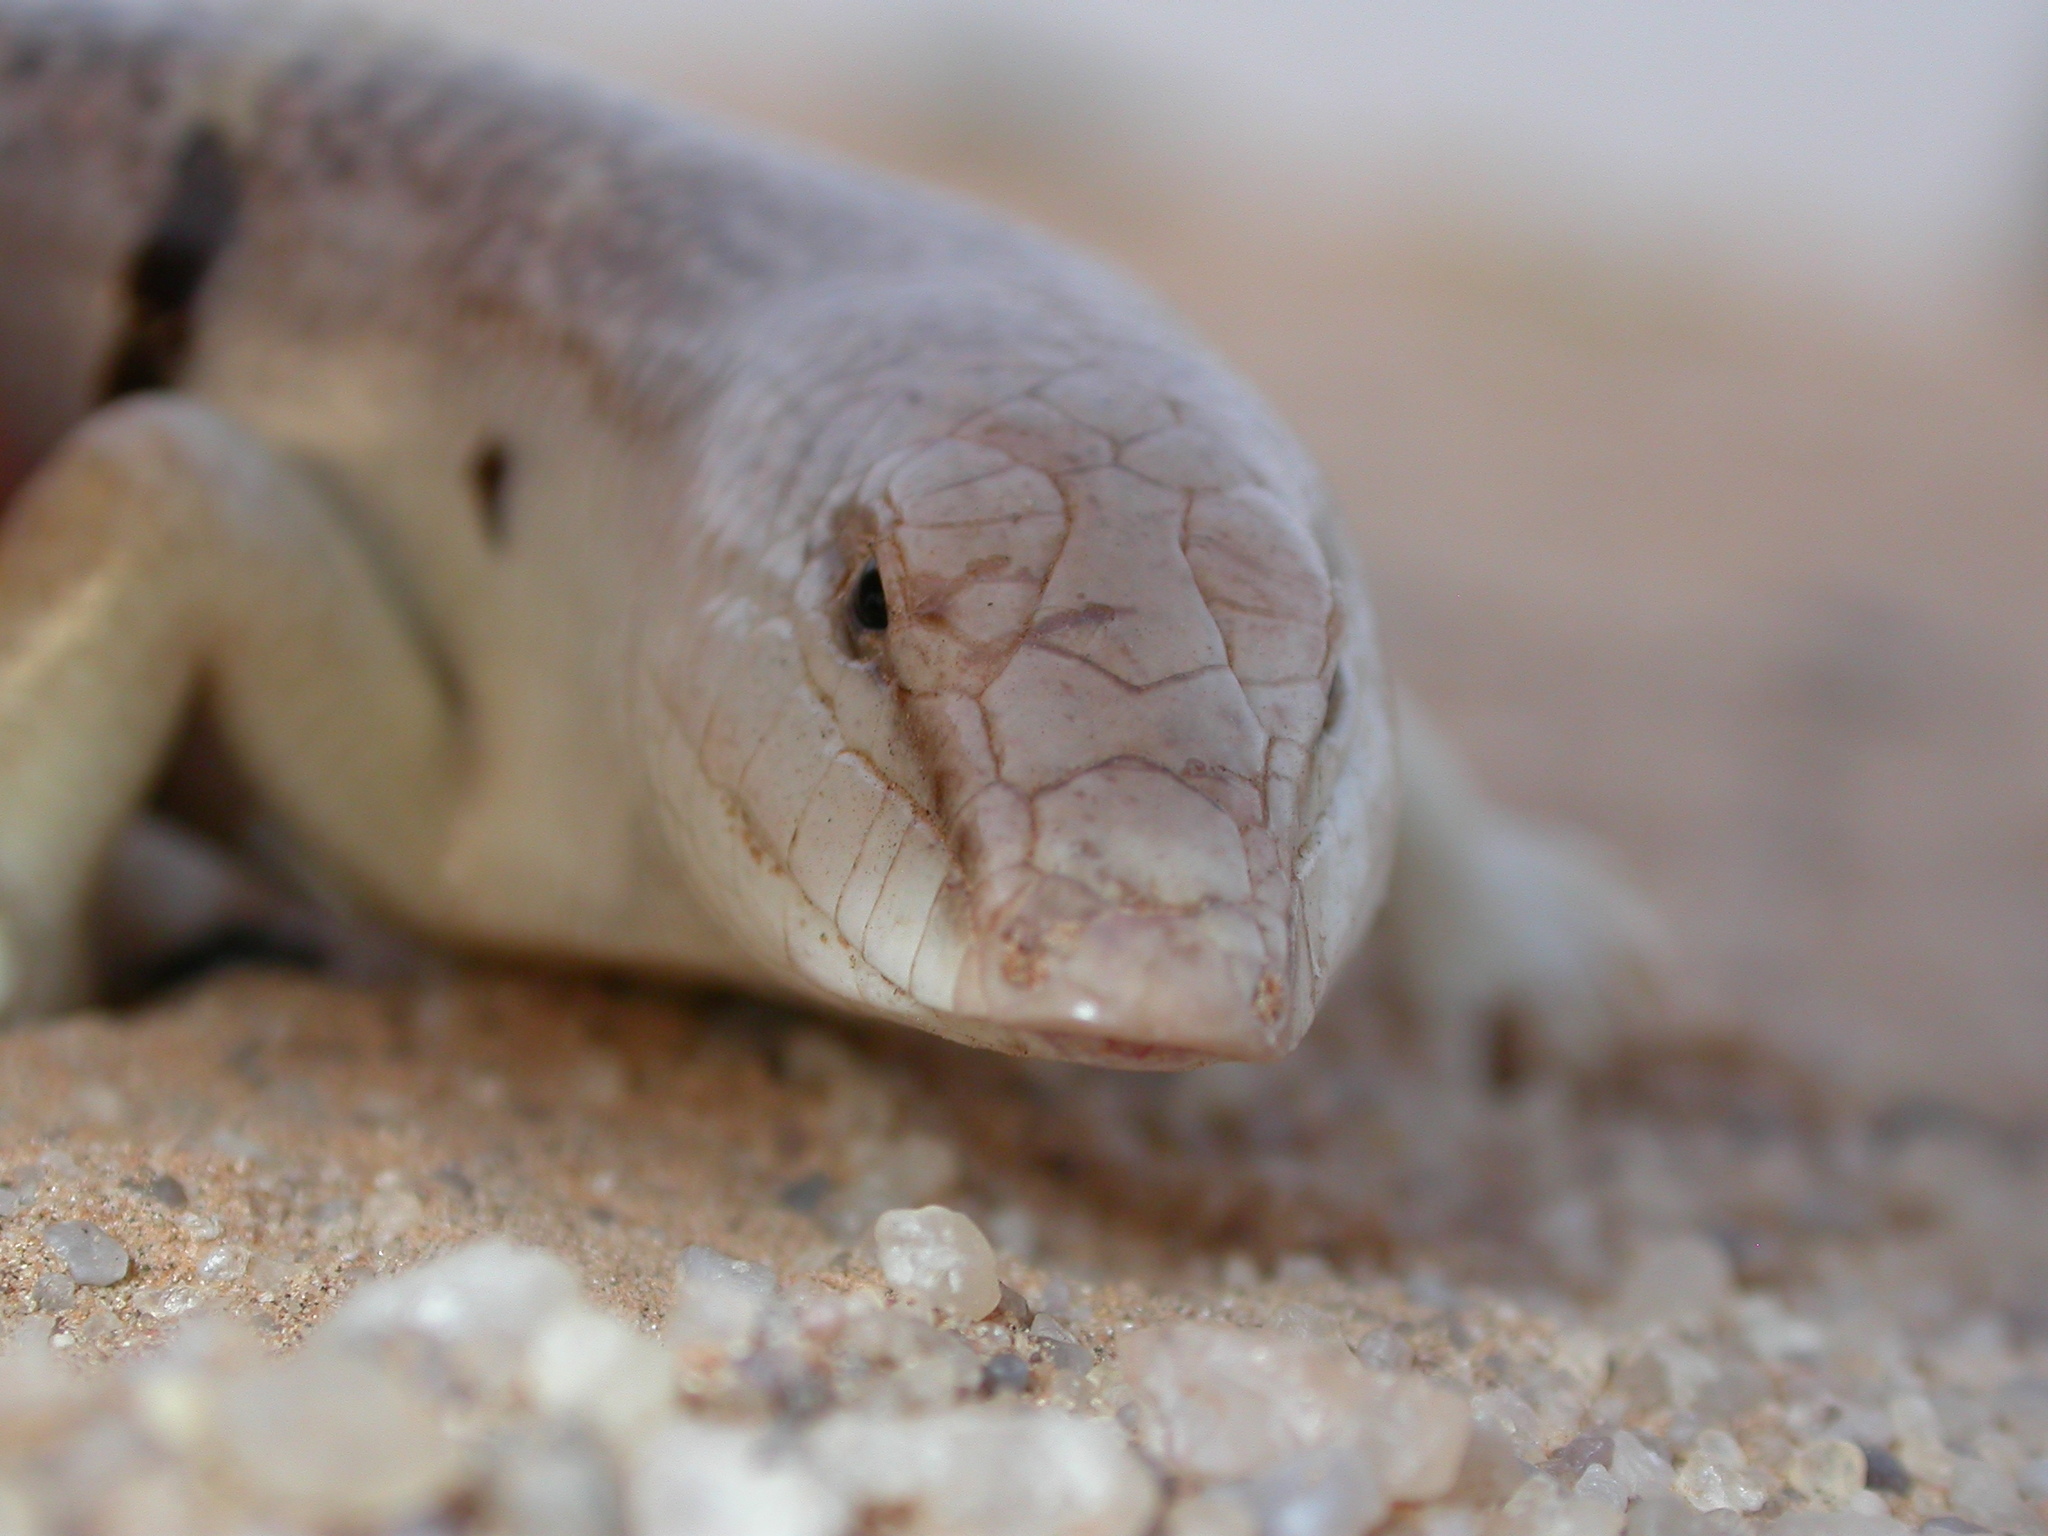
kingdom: Animalia
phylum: Chordata
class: Squamata
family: Scincidae
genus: Scincus
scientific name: Scincus albifasciatus
